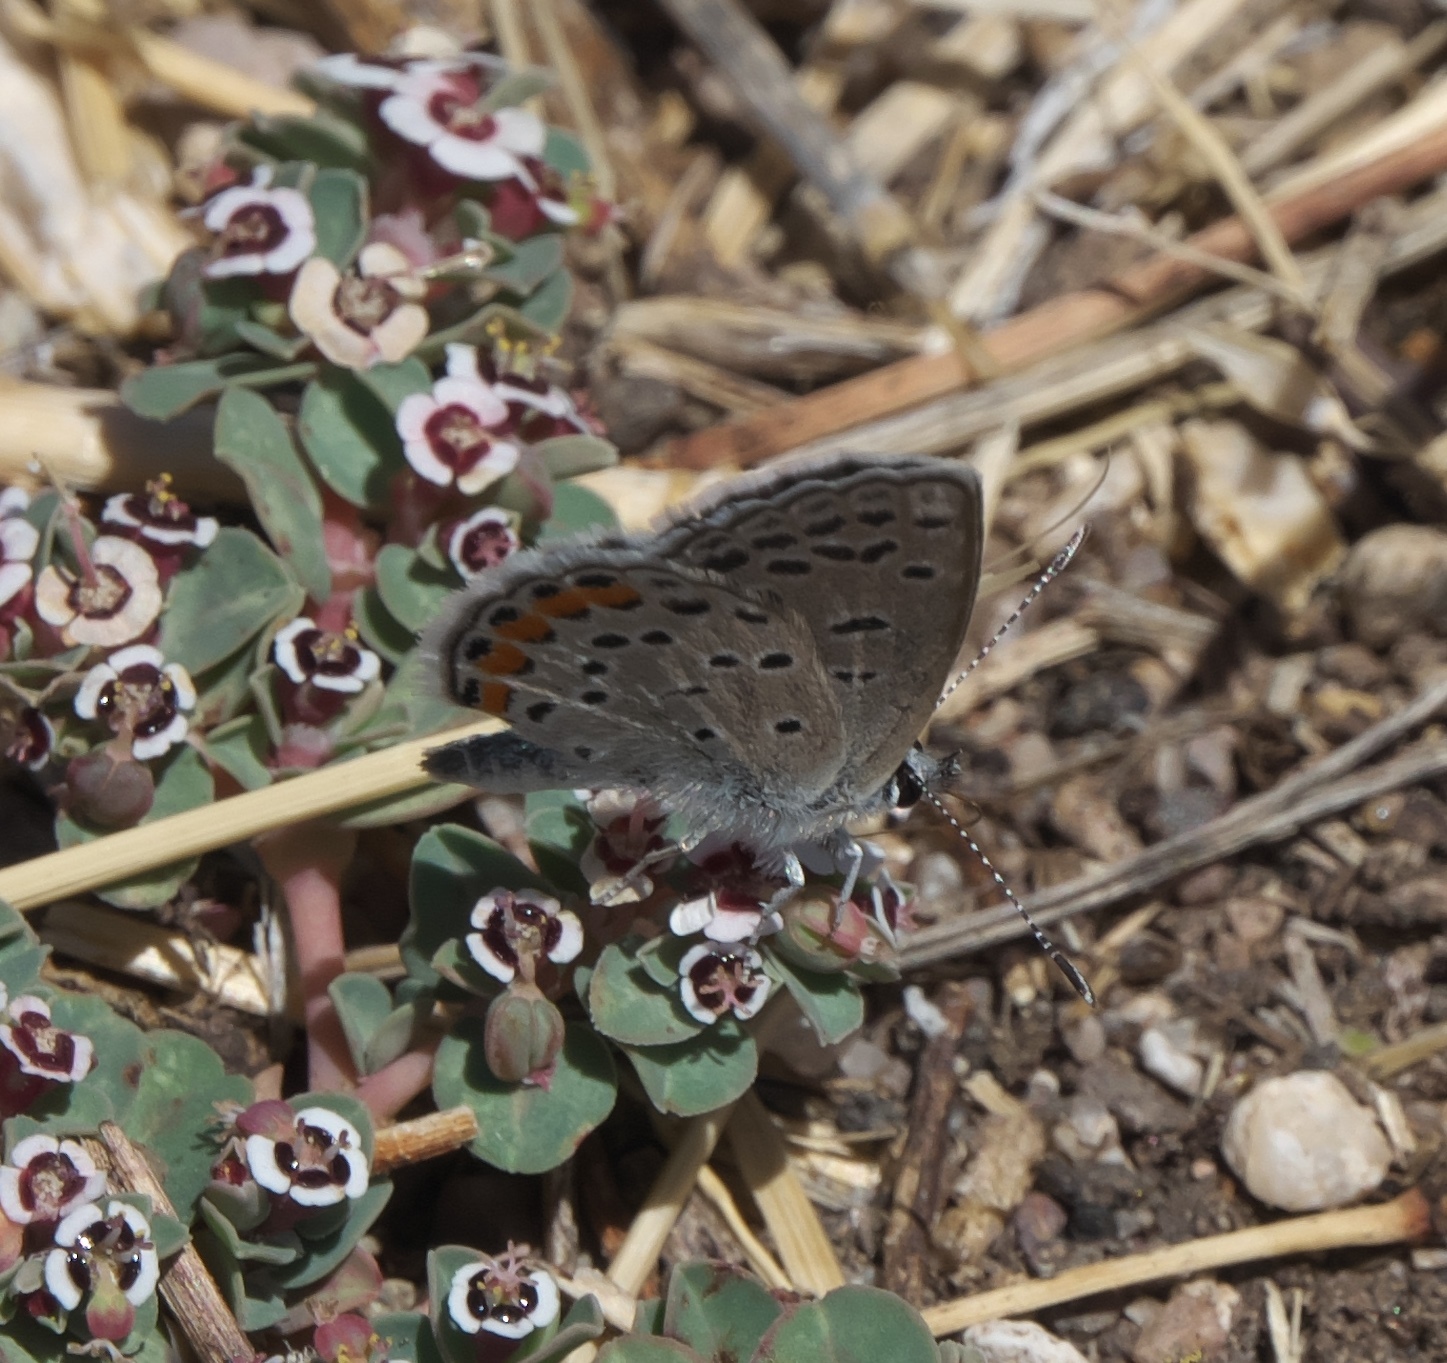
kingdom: Animalia
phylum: Arthropoda
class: Insecta
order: Lepidoptera
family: Lycaenidae
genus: Icaricia
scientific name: Icaricia lupini
